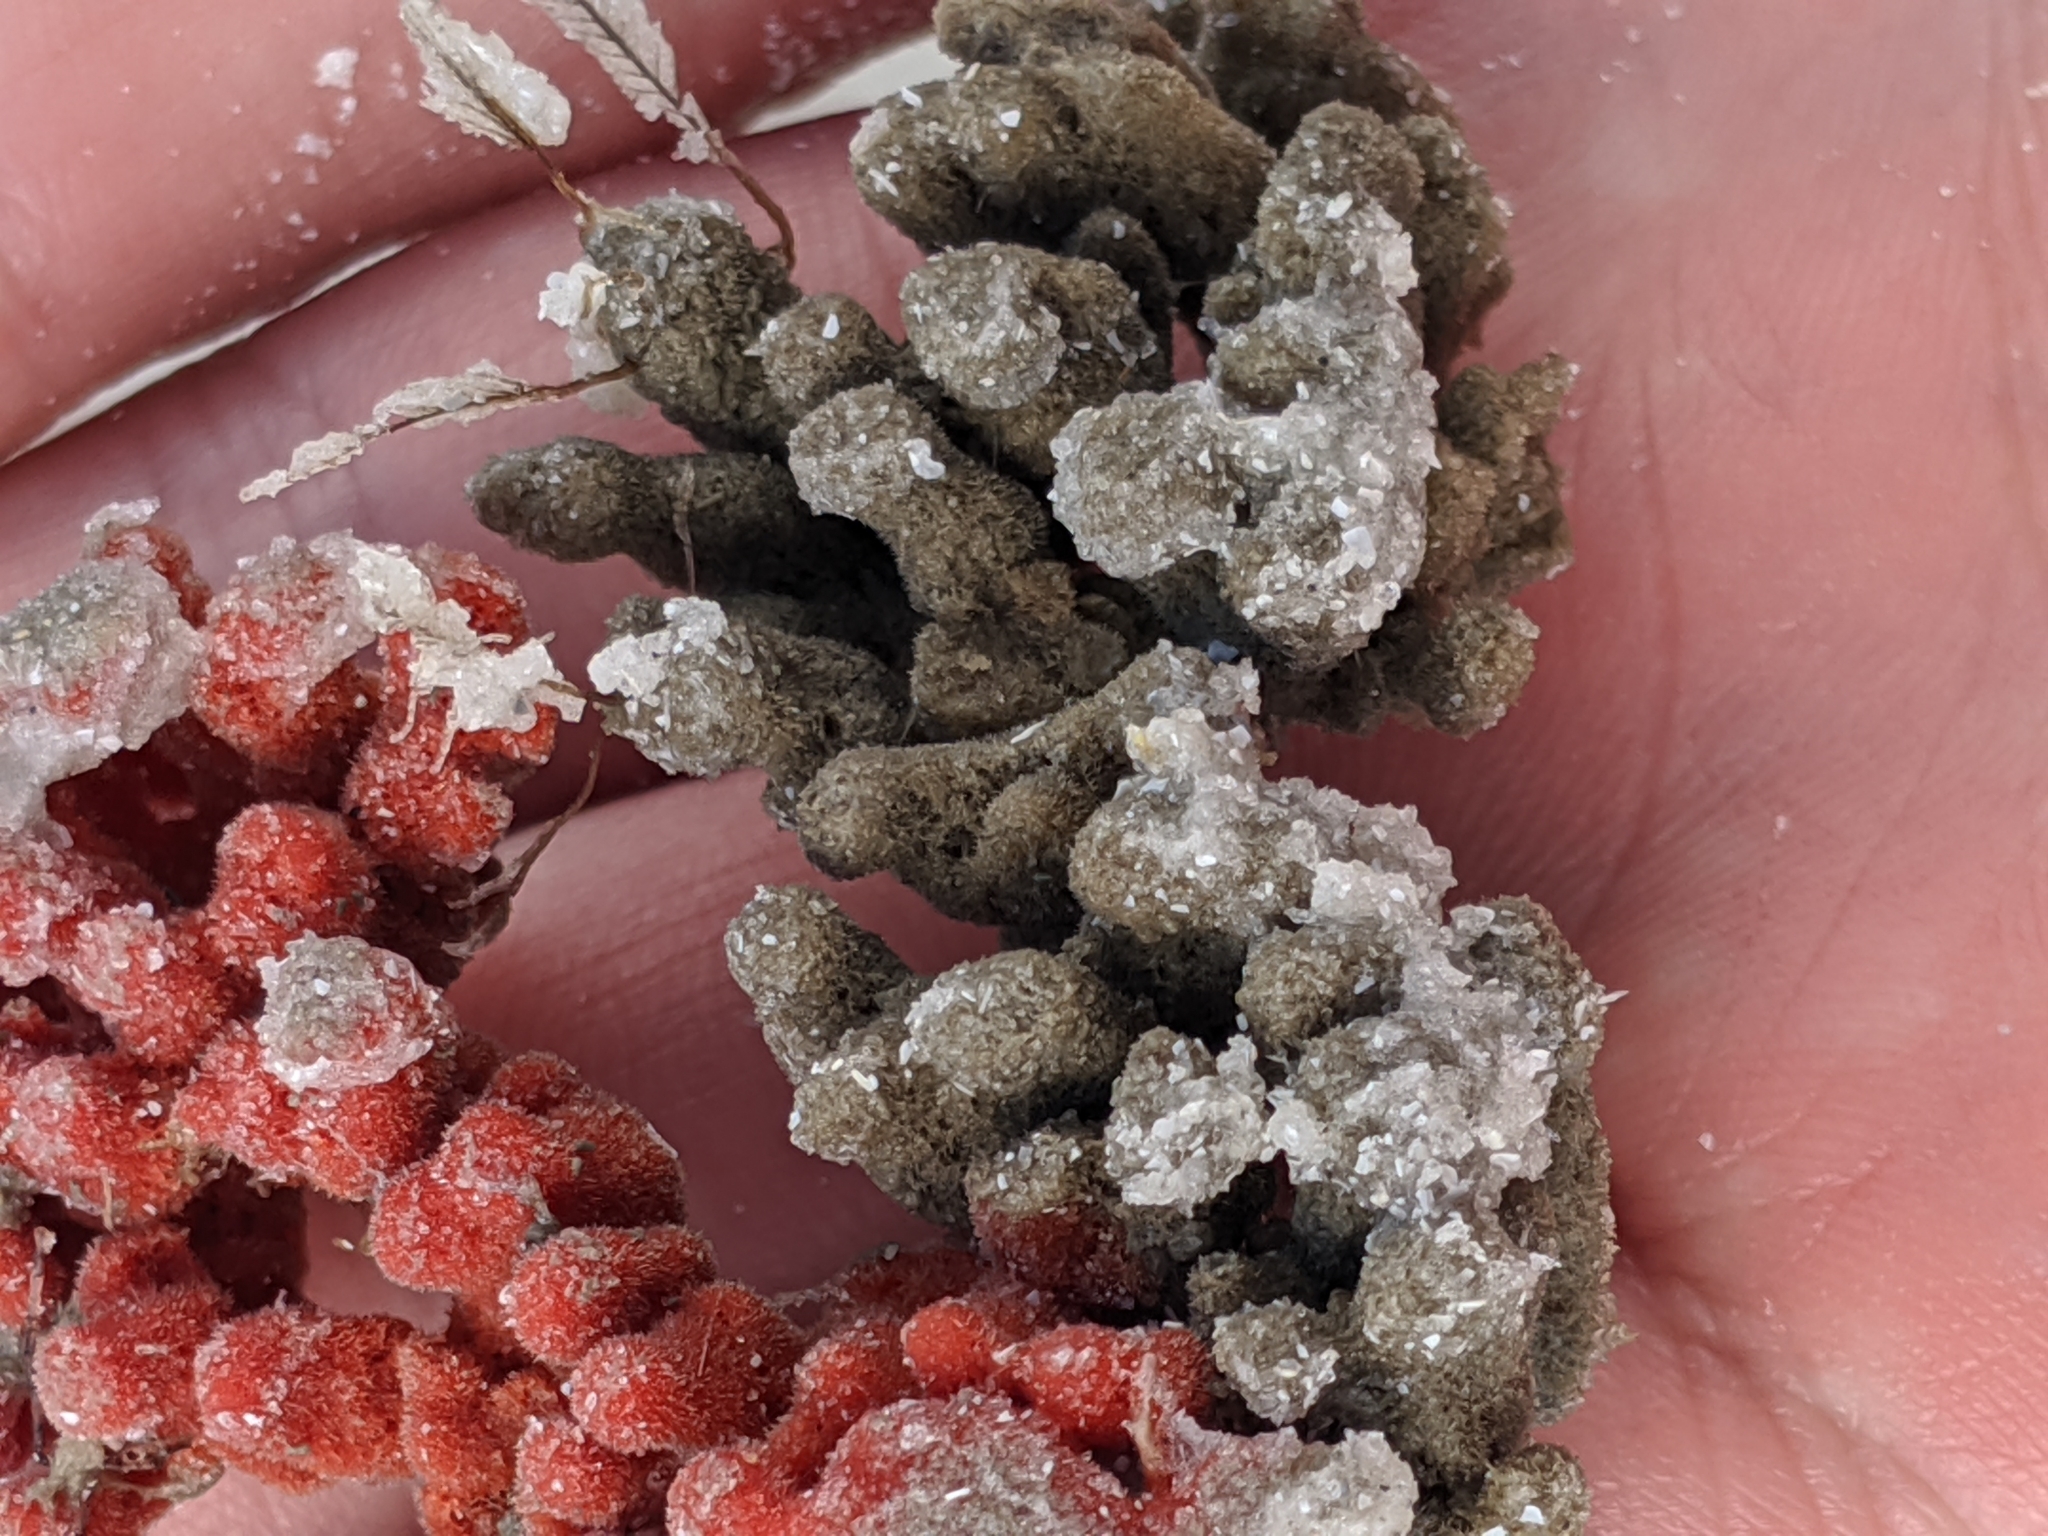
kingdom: Animalia
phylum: Porifera
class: Demospongiae
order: Poecilosclerida
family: Microcionidae
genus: Clathria
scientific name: Clathria prolifera
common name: Red beard sponge
